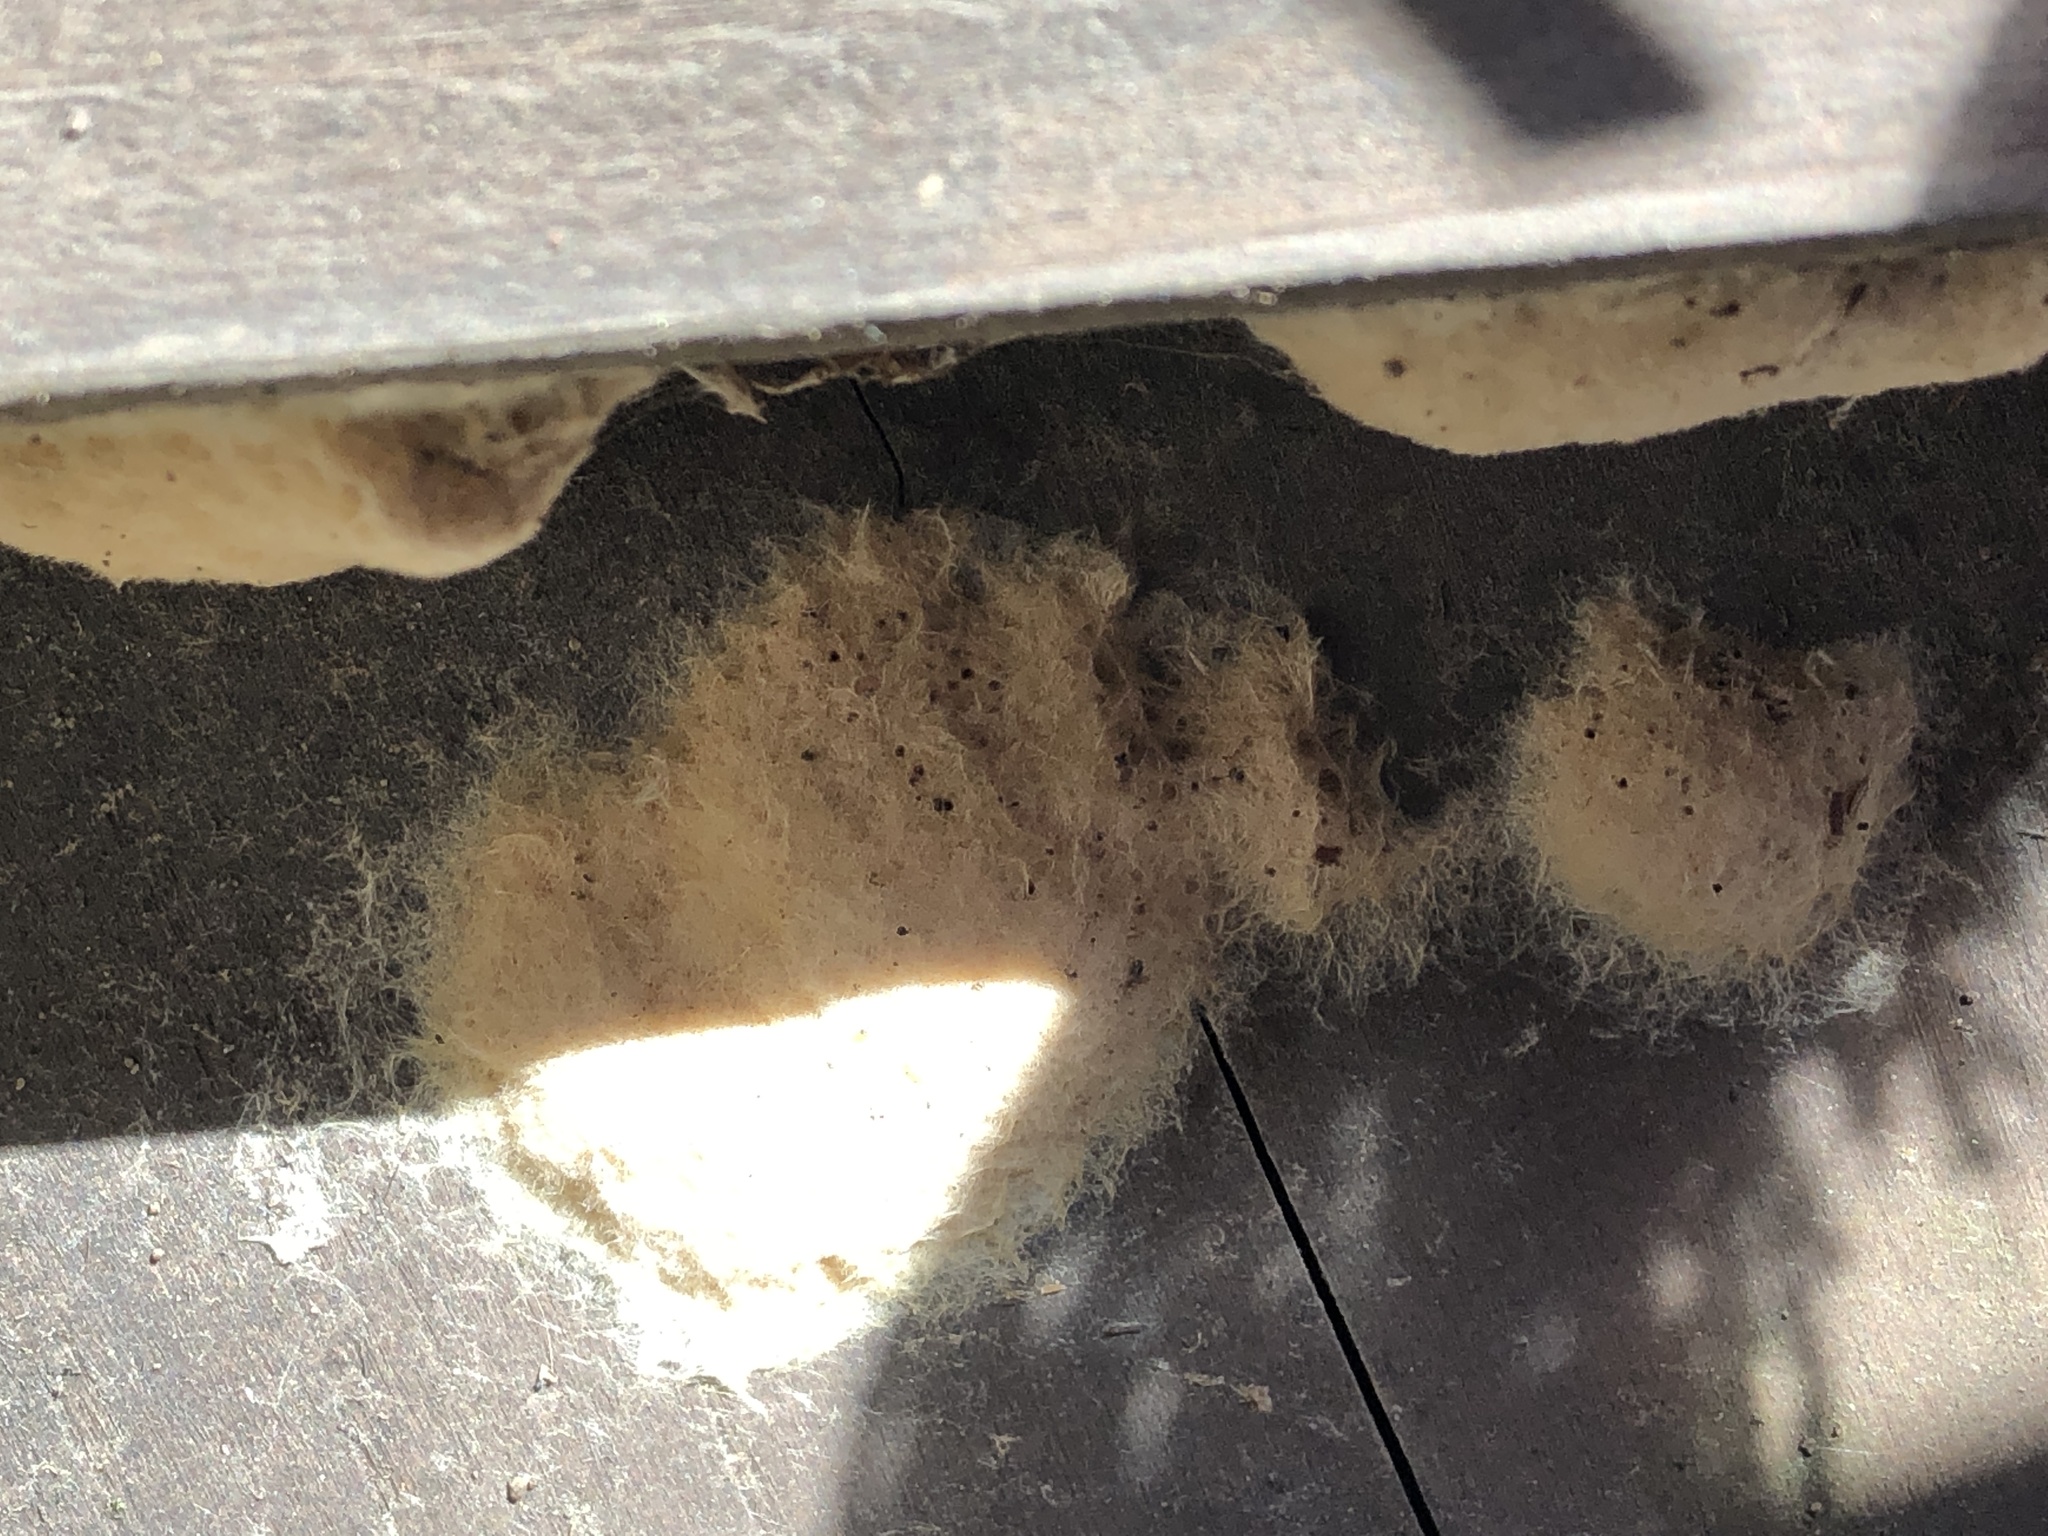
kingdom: Animalia
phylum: Arthropoda
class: Insecta
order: Lepidoptera
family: Erebidae
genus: Lymantria
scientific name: Lymantria dispar
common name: Gypsy moth
